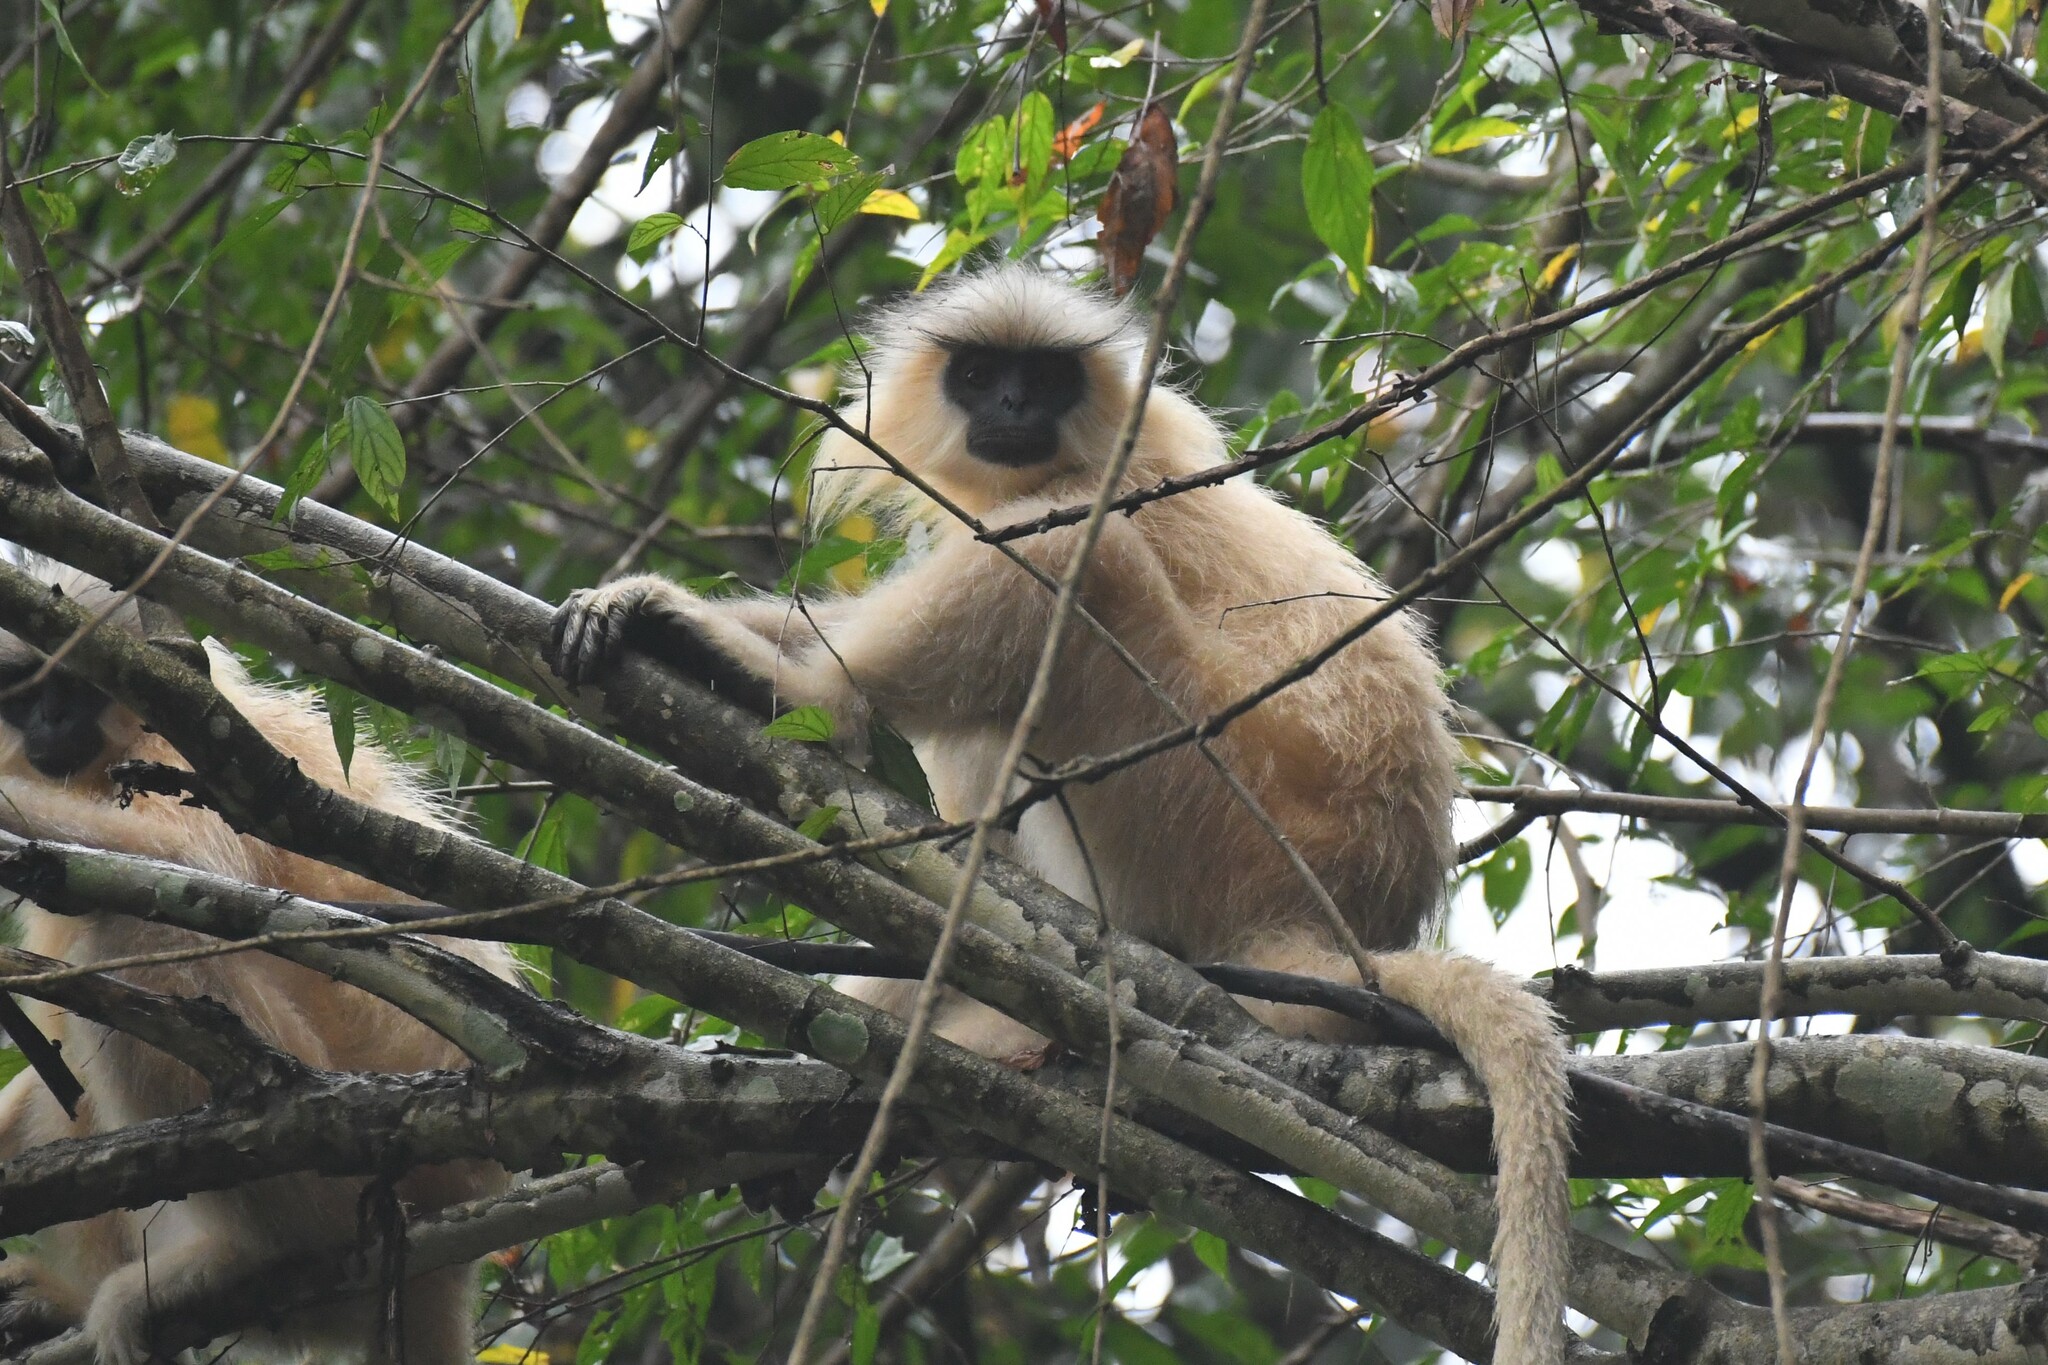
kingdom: Animalia
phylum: Chordata
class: Mammalia
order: Primates
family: Cercopithecidae
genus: Trachypithecus
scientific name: Trachypithecus geei
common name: Gee's golden langur
